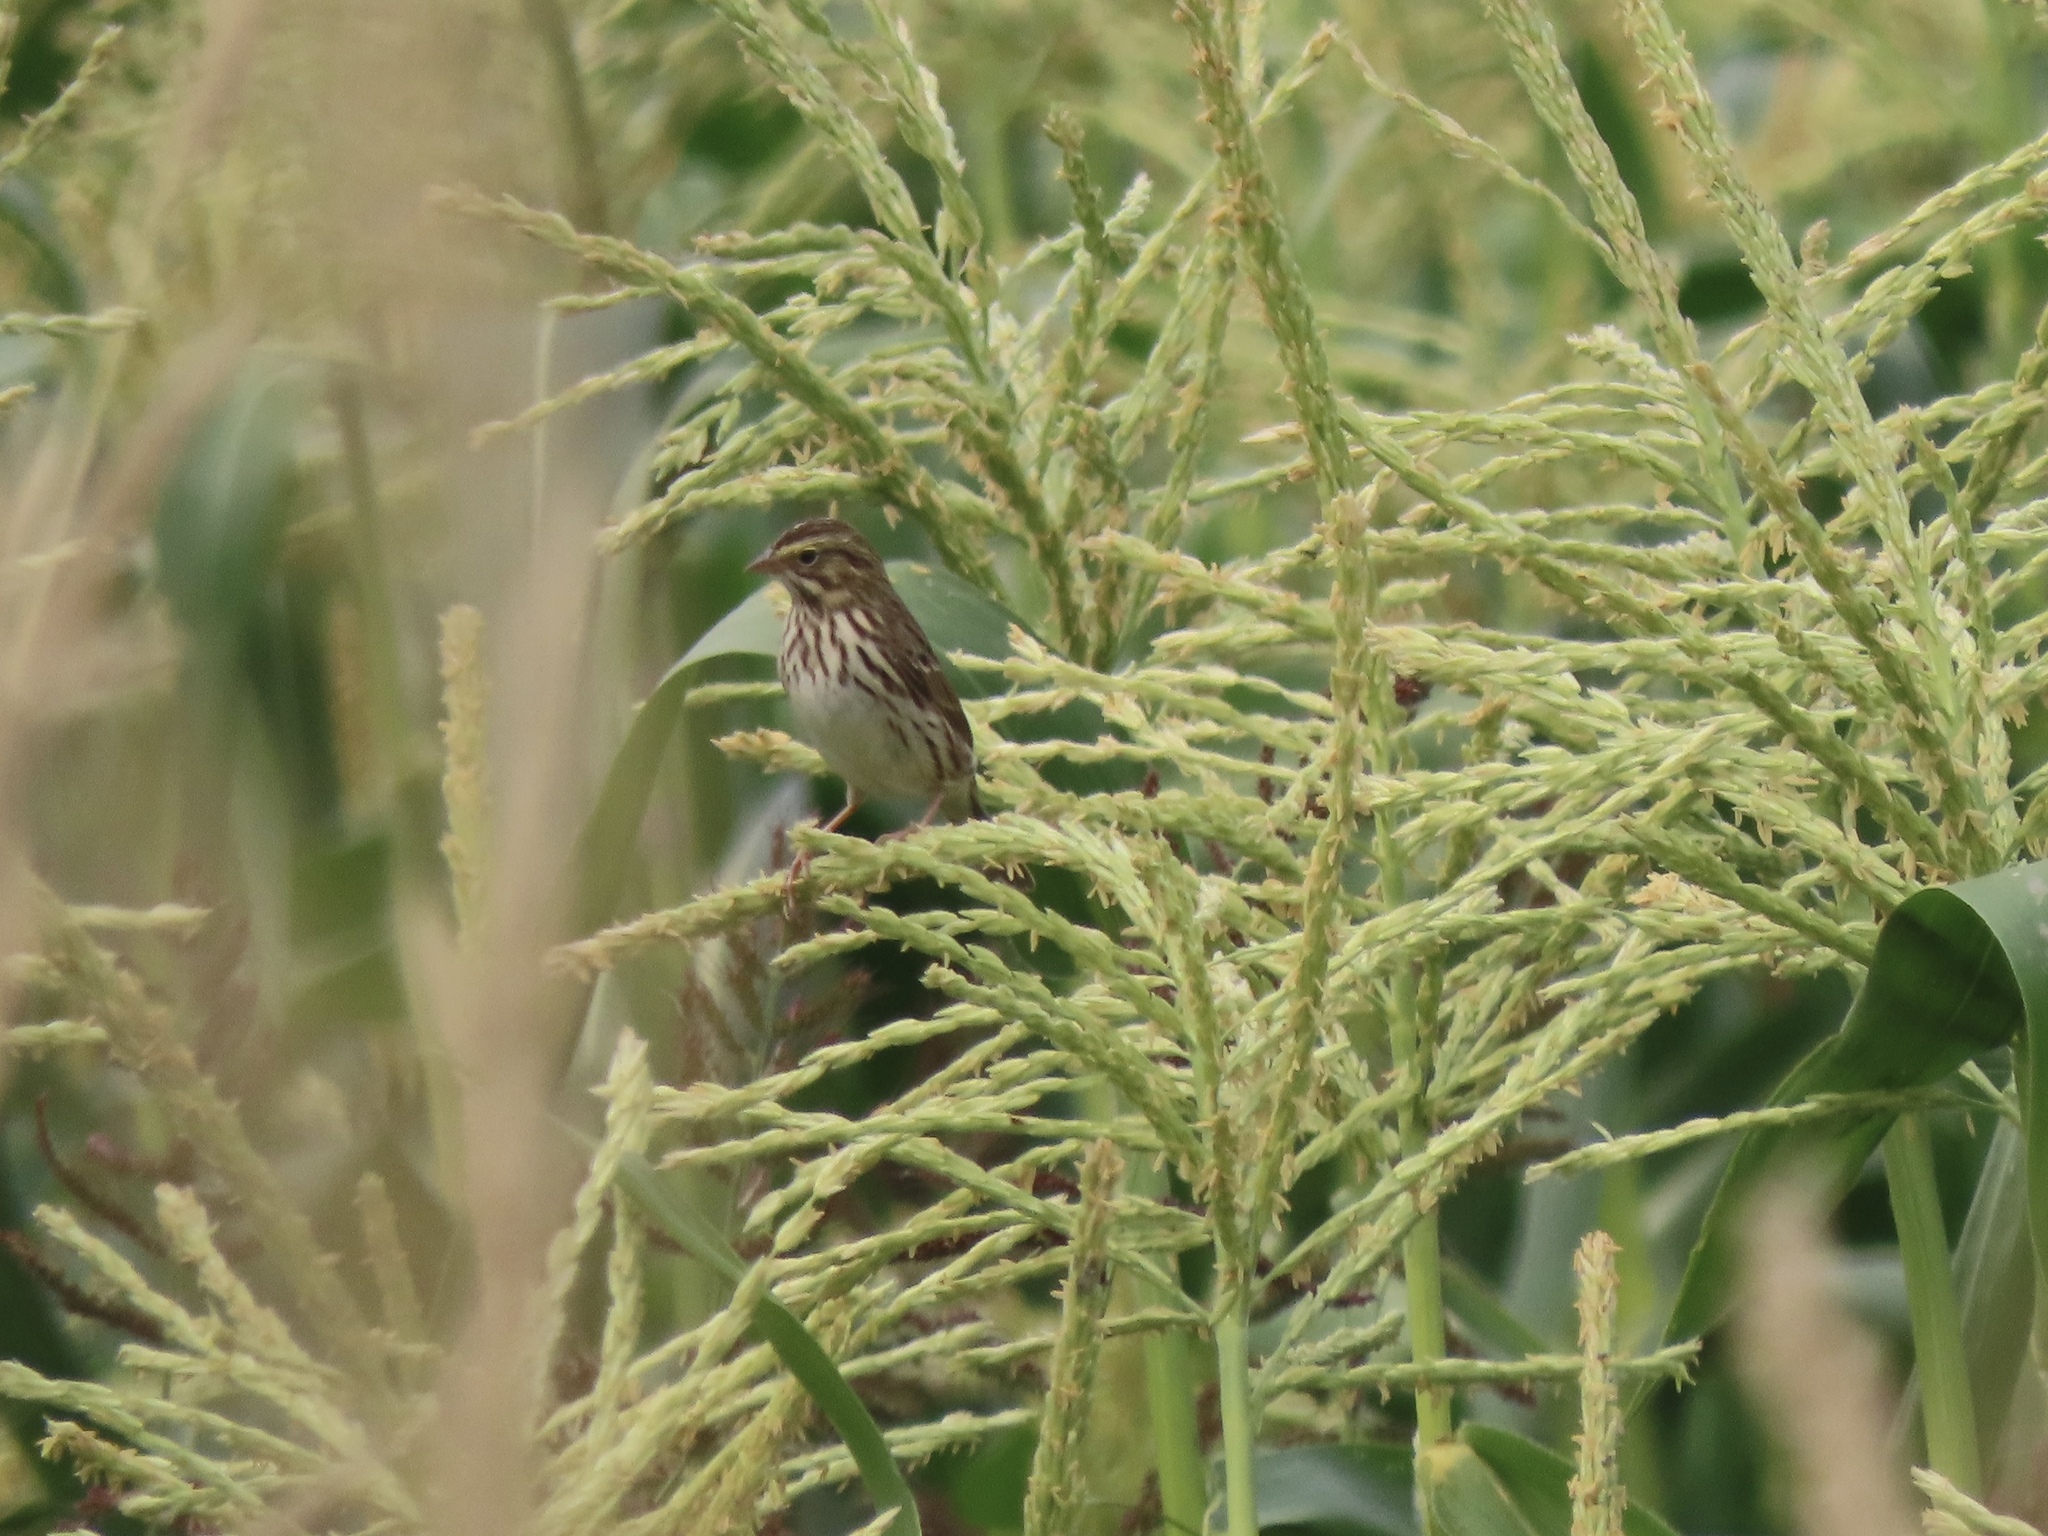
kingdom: Animalia
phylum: Chordata
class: Aves
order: Passeriformes
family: Passerellidae
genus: Passerculus
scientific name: Passerculus sandwichensis
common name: Savannah sparrow
